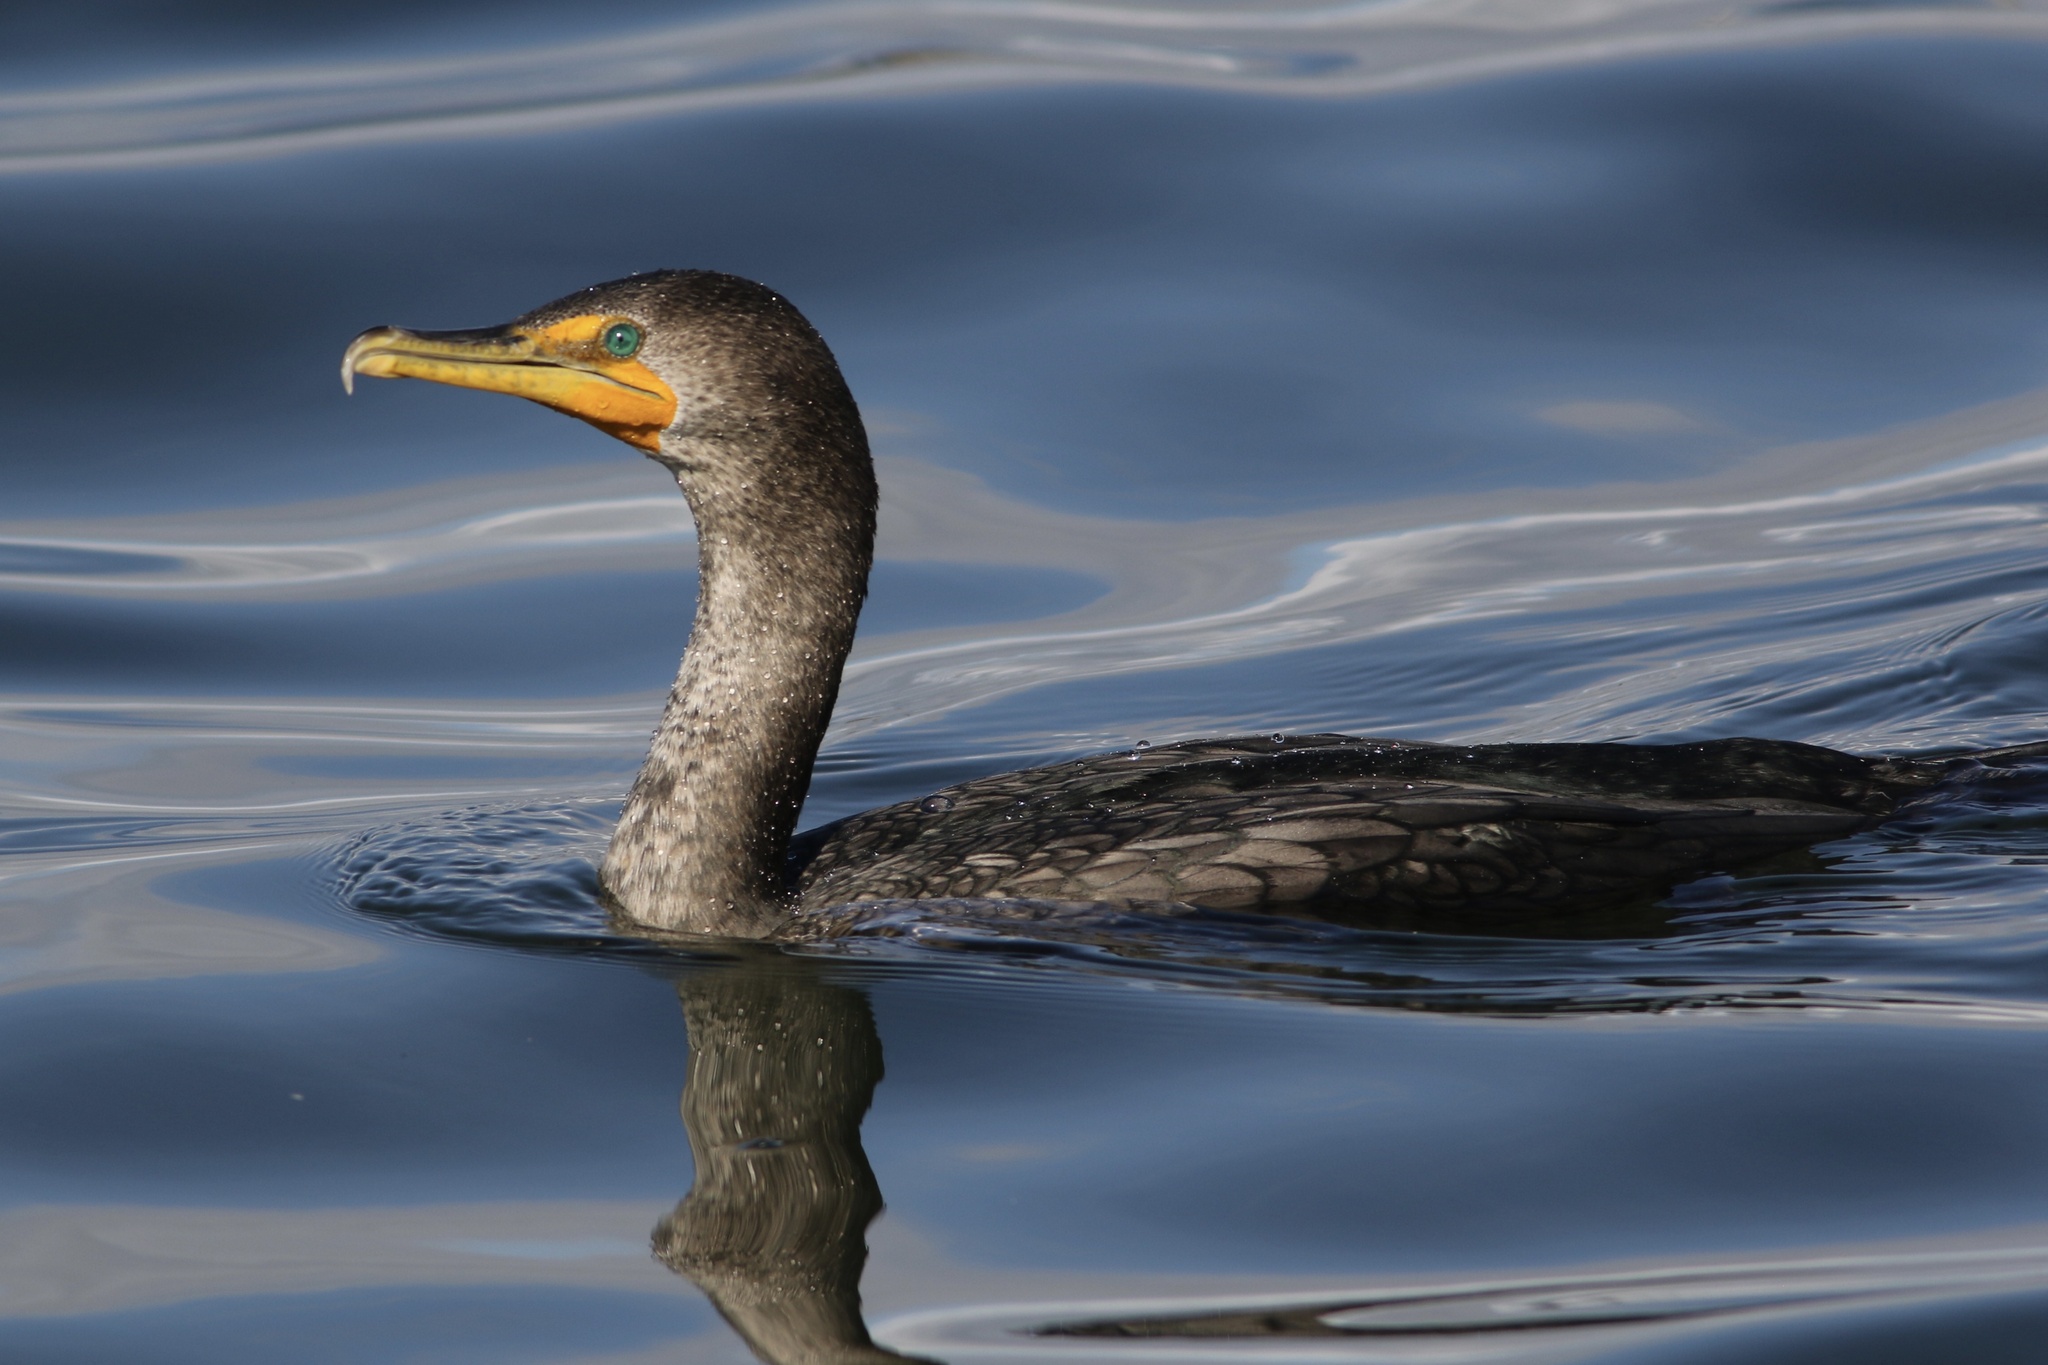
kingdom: Animalia
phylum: Chordata
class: Aves
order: Suliformes
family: Phalacrocoracidae
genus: Phalacrocorax
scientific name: Phalacrocorax auritus
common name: Double-crested cormorant
